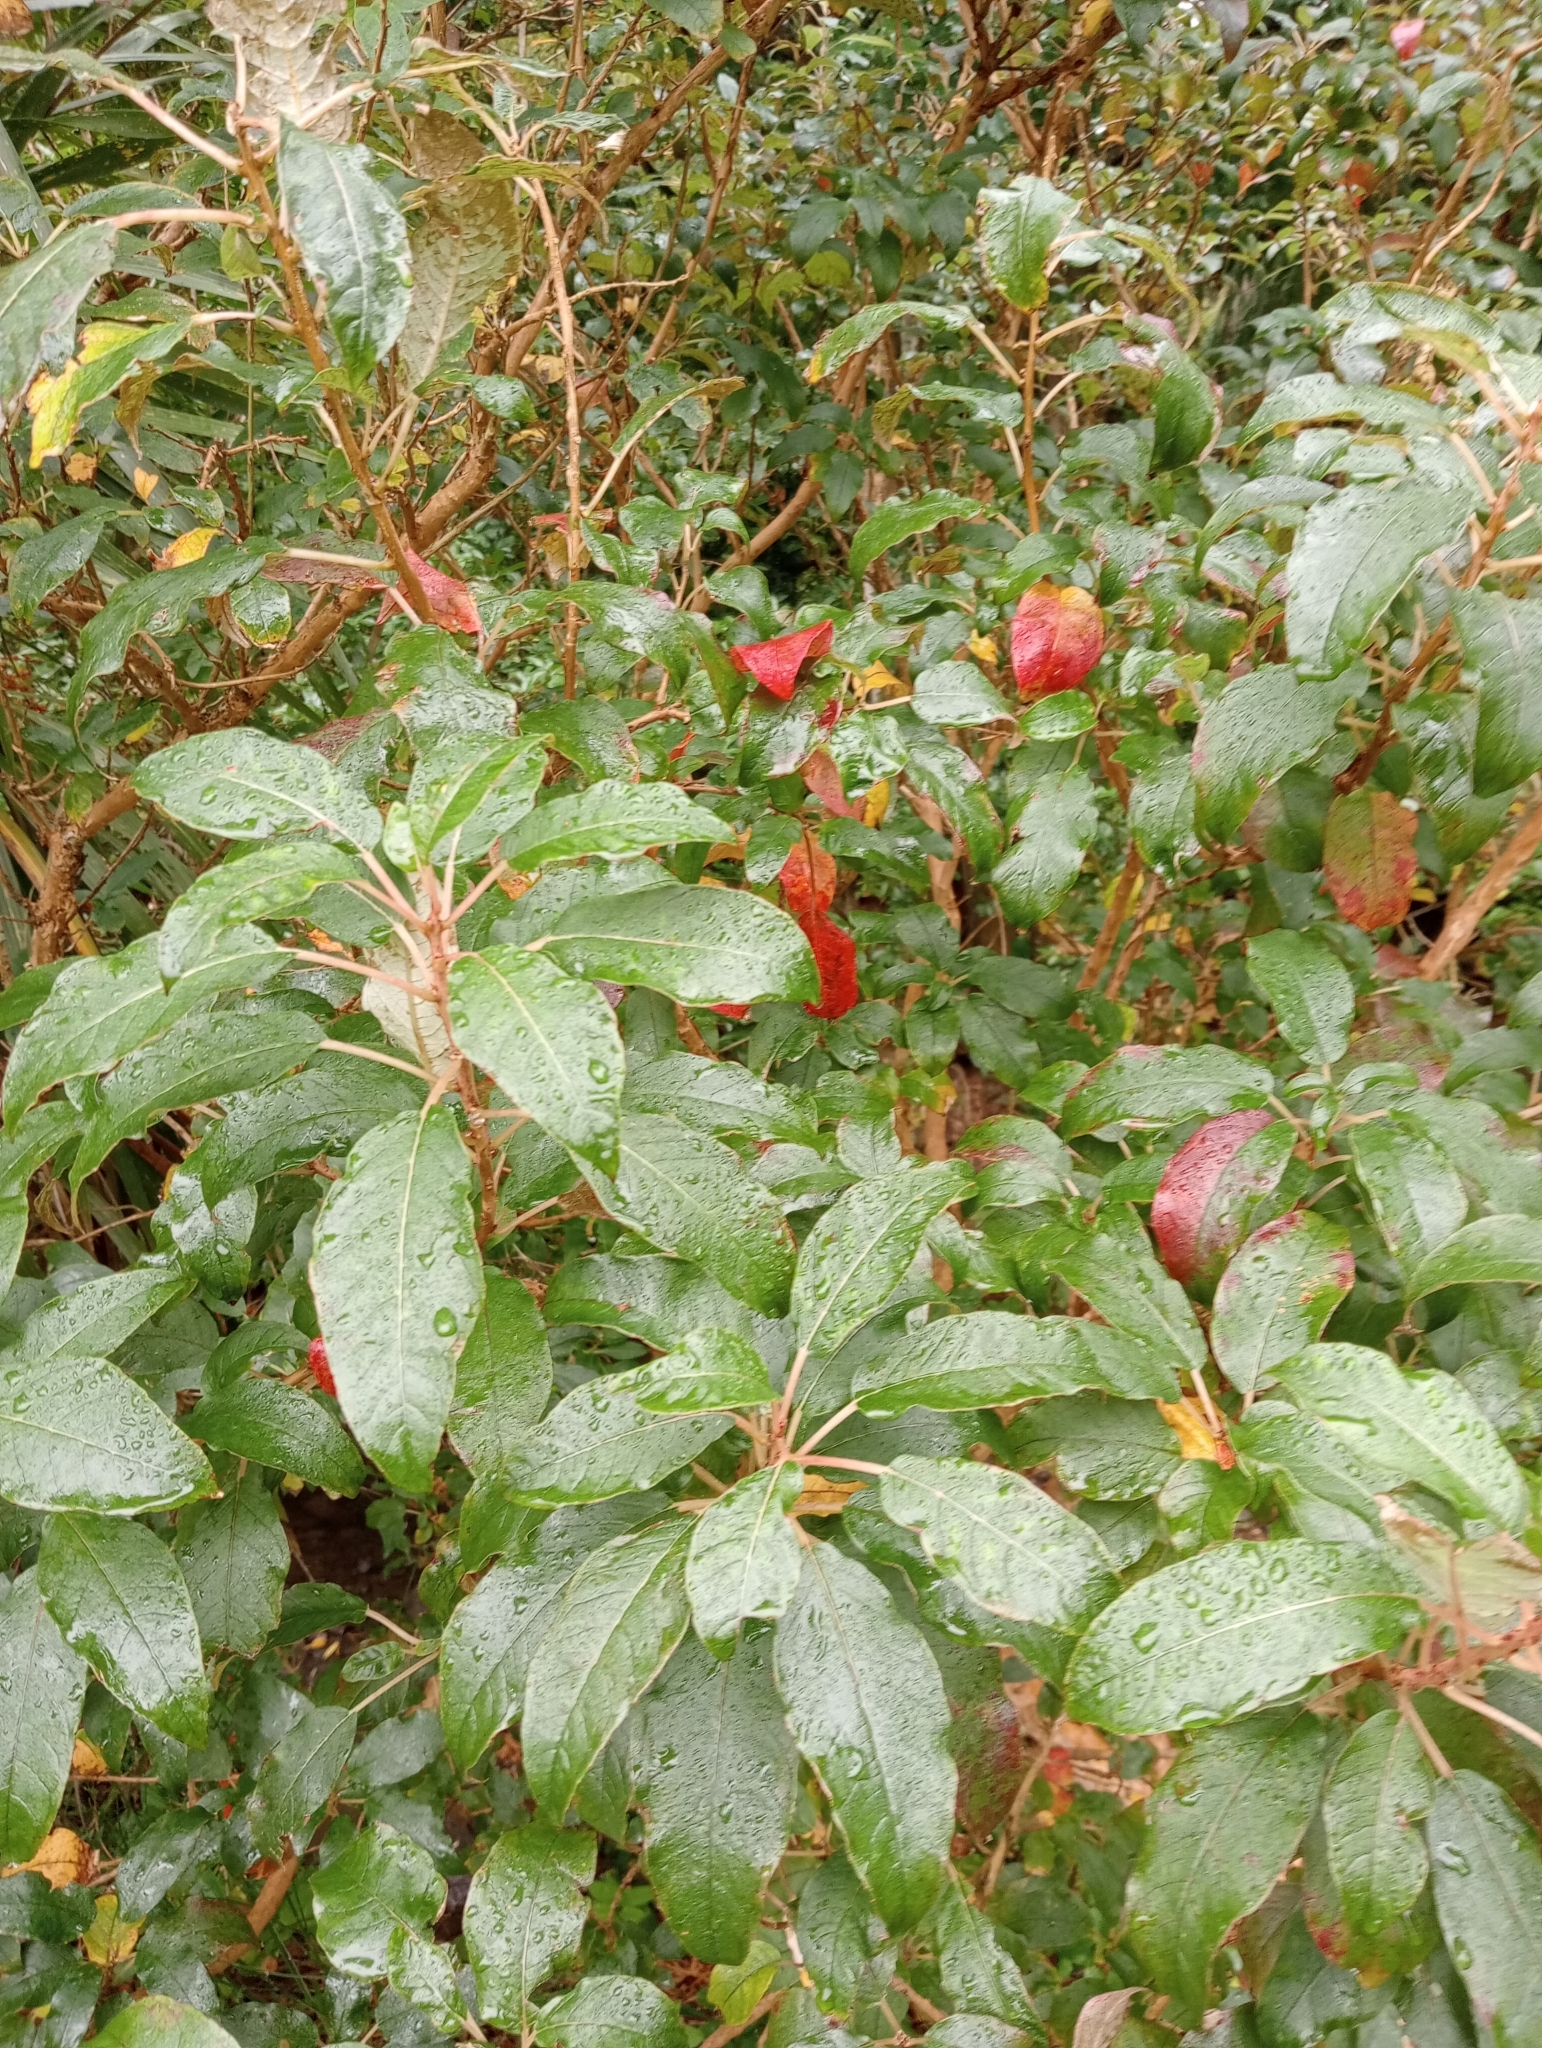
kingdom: Plantae
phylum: Tracheophyta
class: Magnoliopsida
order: Myrtales
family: Onagraceae
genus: Fuchsia
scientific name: Fuchsia excorticata
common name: Tree fuchsia
